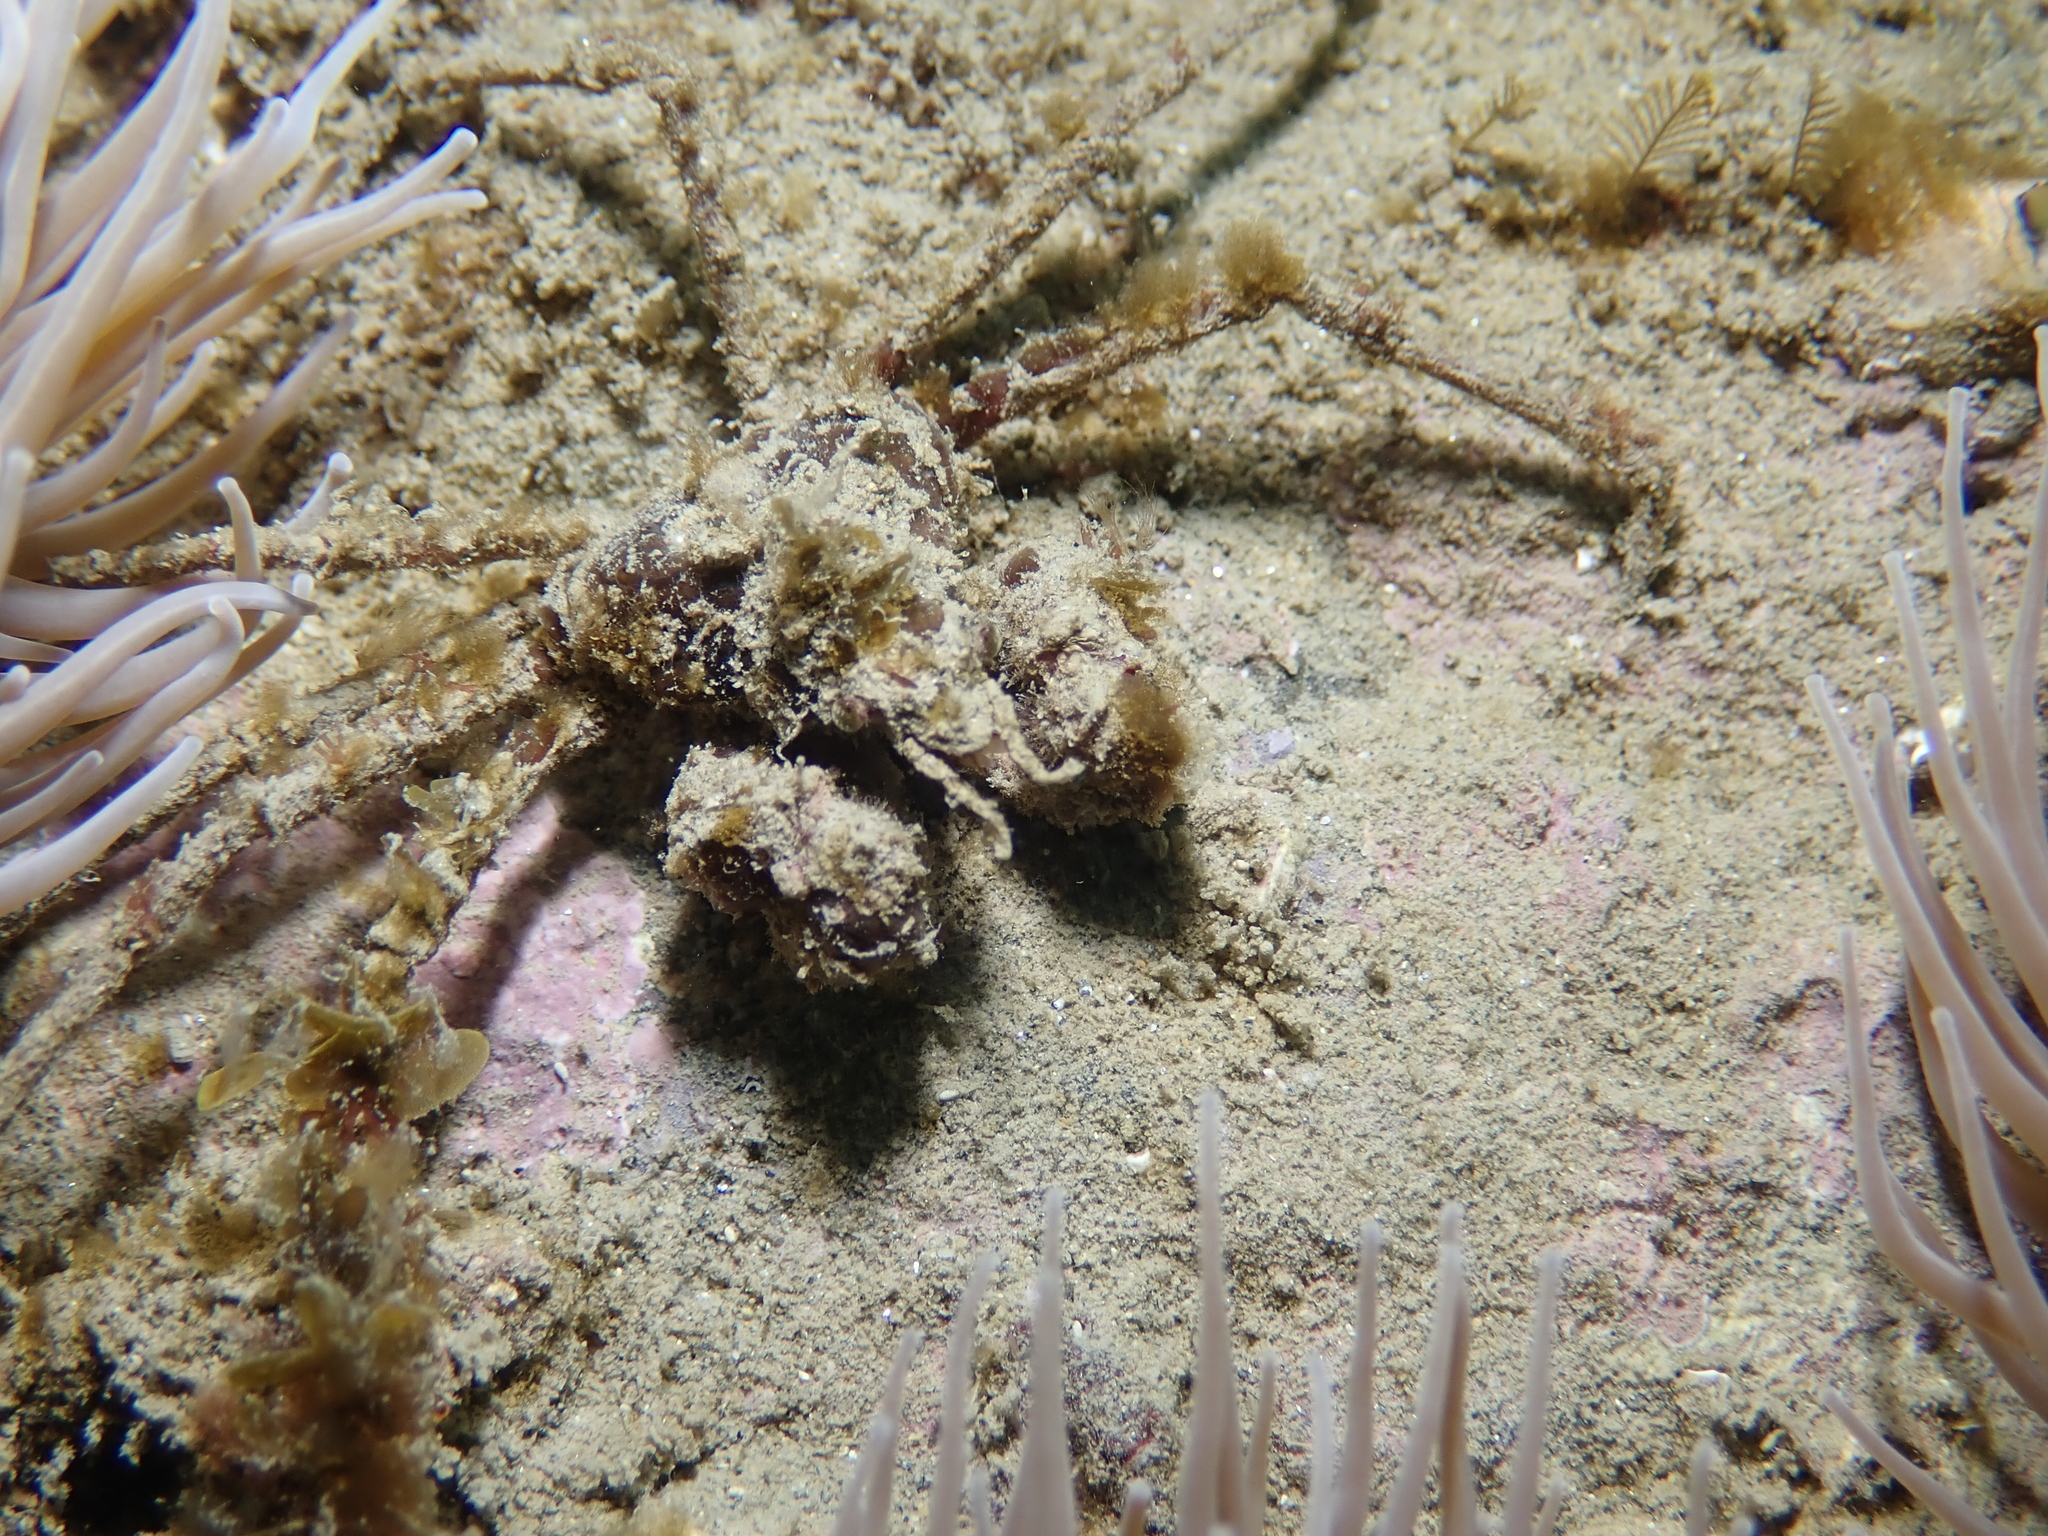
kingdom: Animalia
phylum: Arthropoda
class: Malacostraca
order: Decapoda
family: Inachidae
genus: Inachus
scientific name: Inachus phalangium
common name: Leach's spider crab
